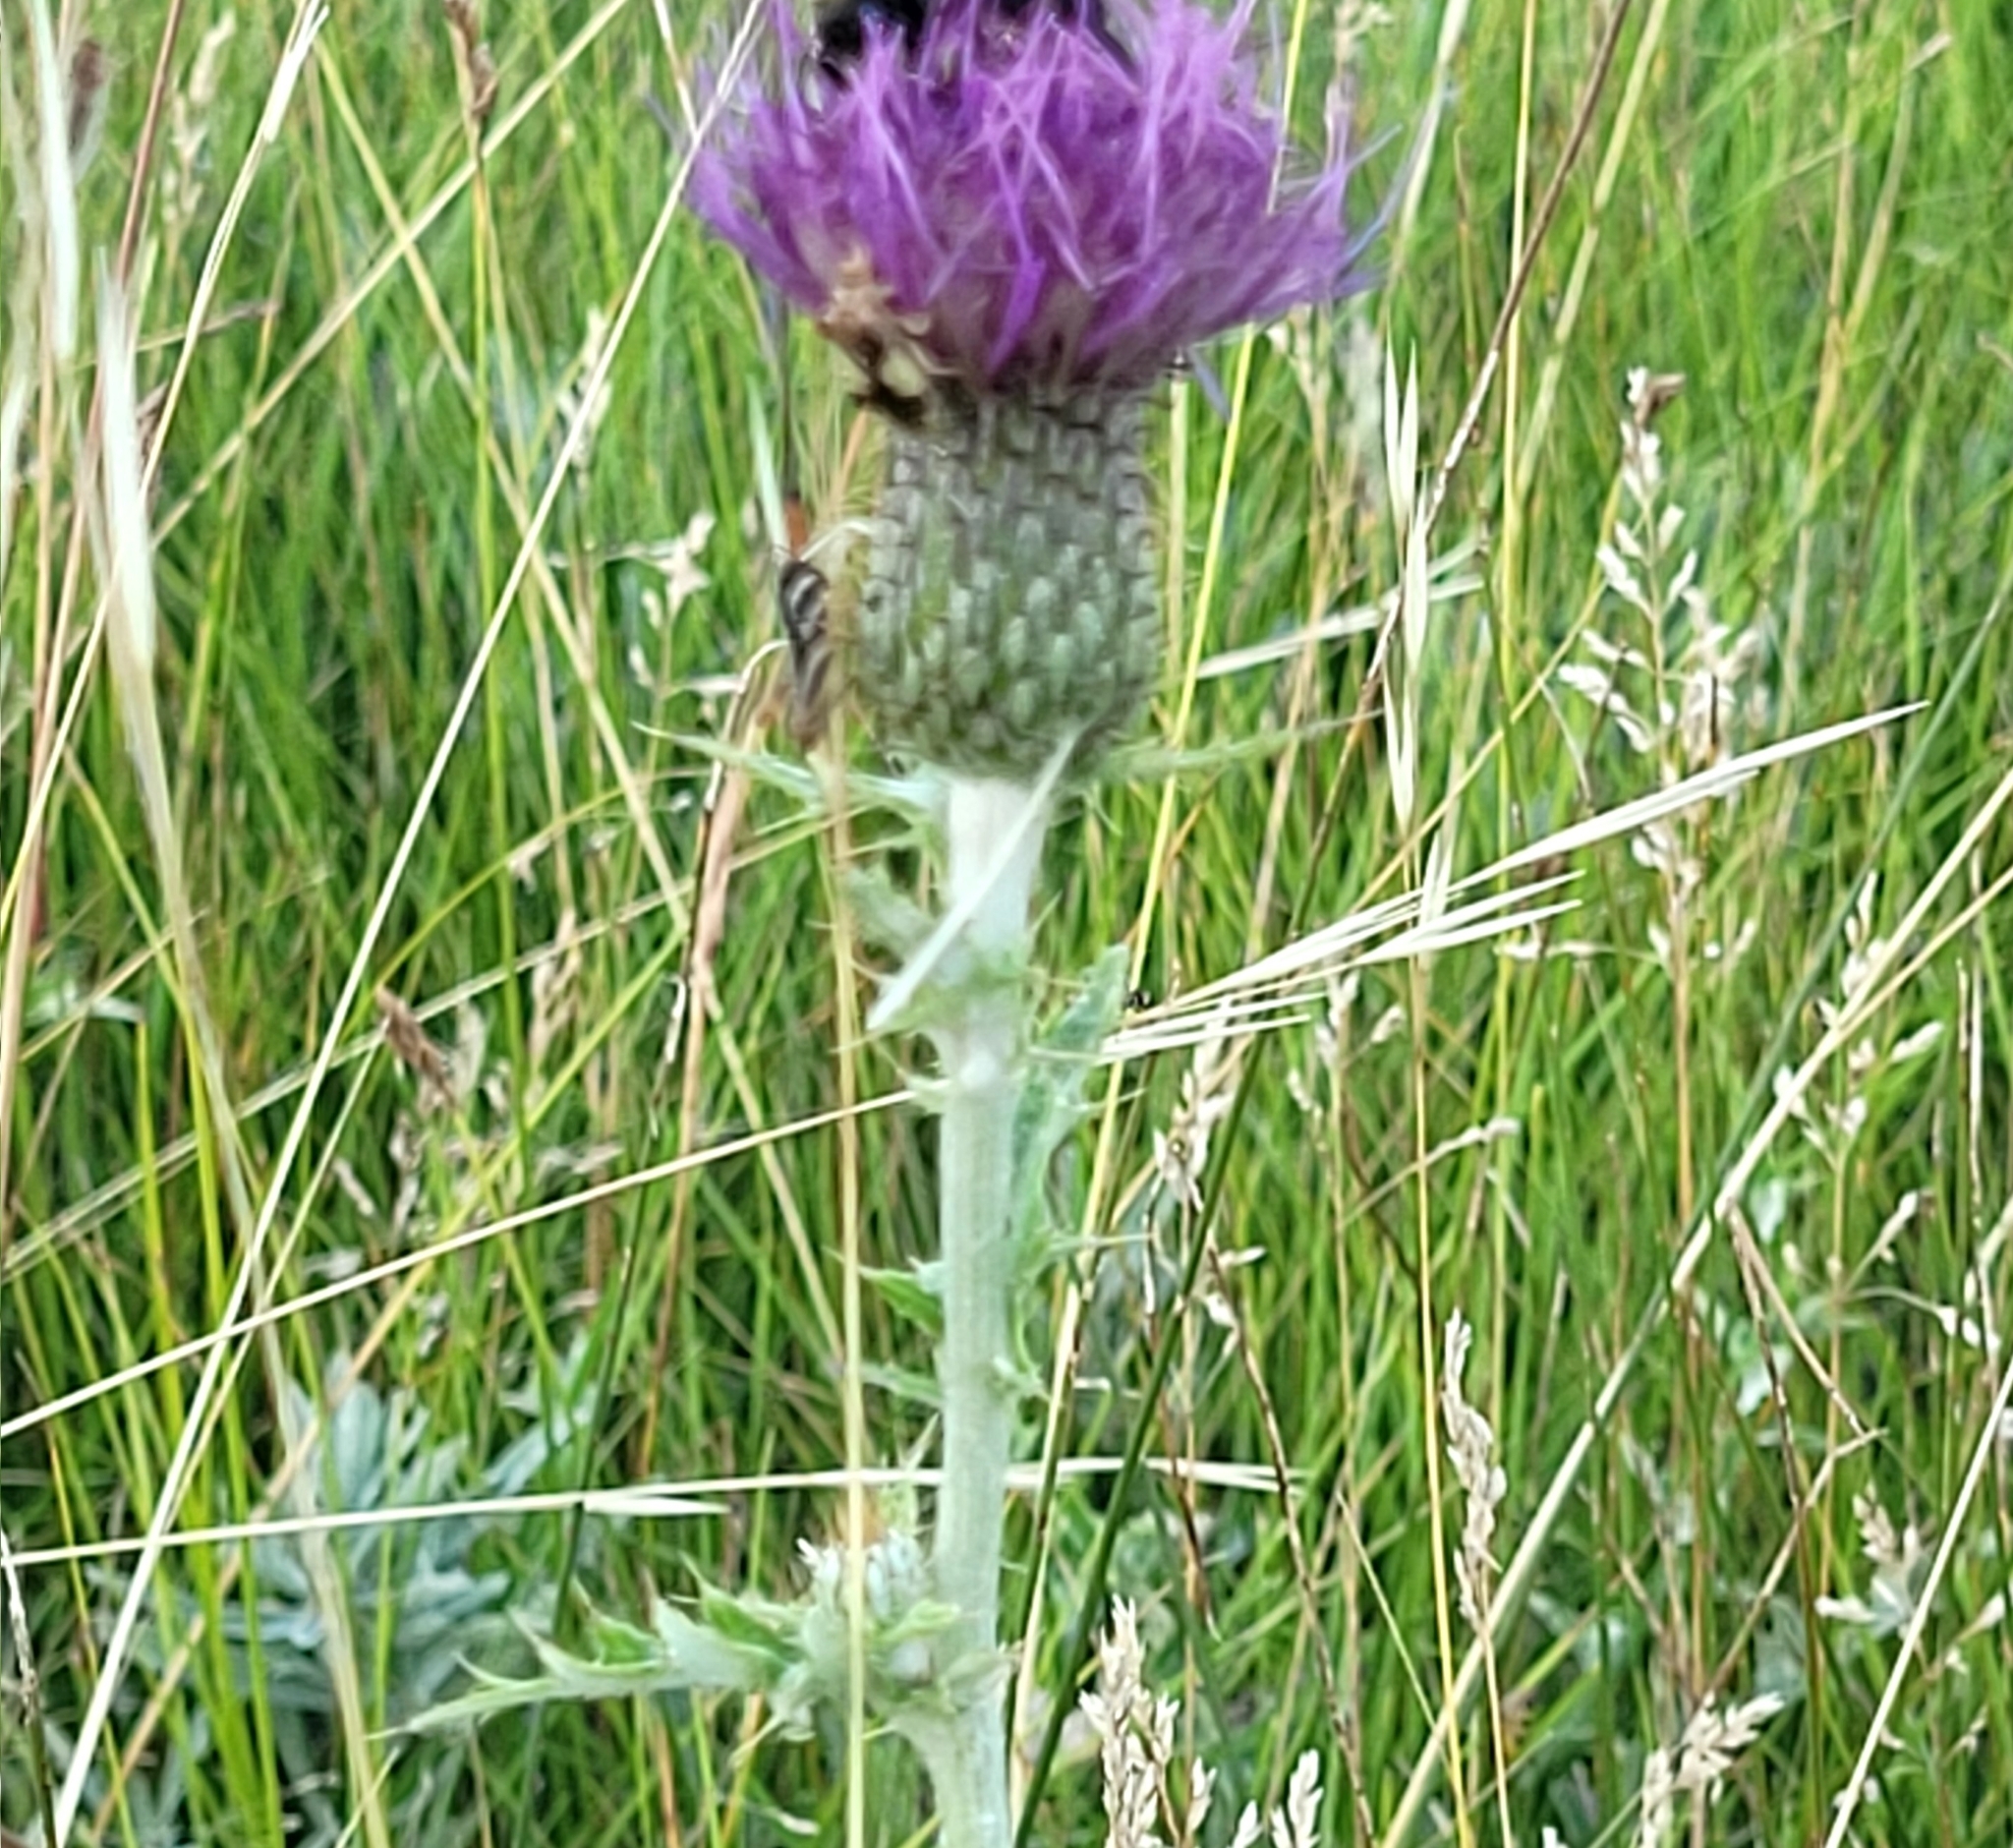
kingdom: Plantae
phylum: Tracheophyta
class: Liliopsida
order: Poales
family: Poaceae
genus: Hesperostipa
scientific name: Hesperostipa curtiseta
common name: Canada needle-and-thread grass
